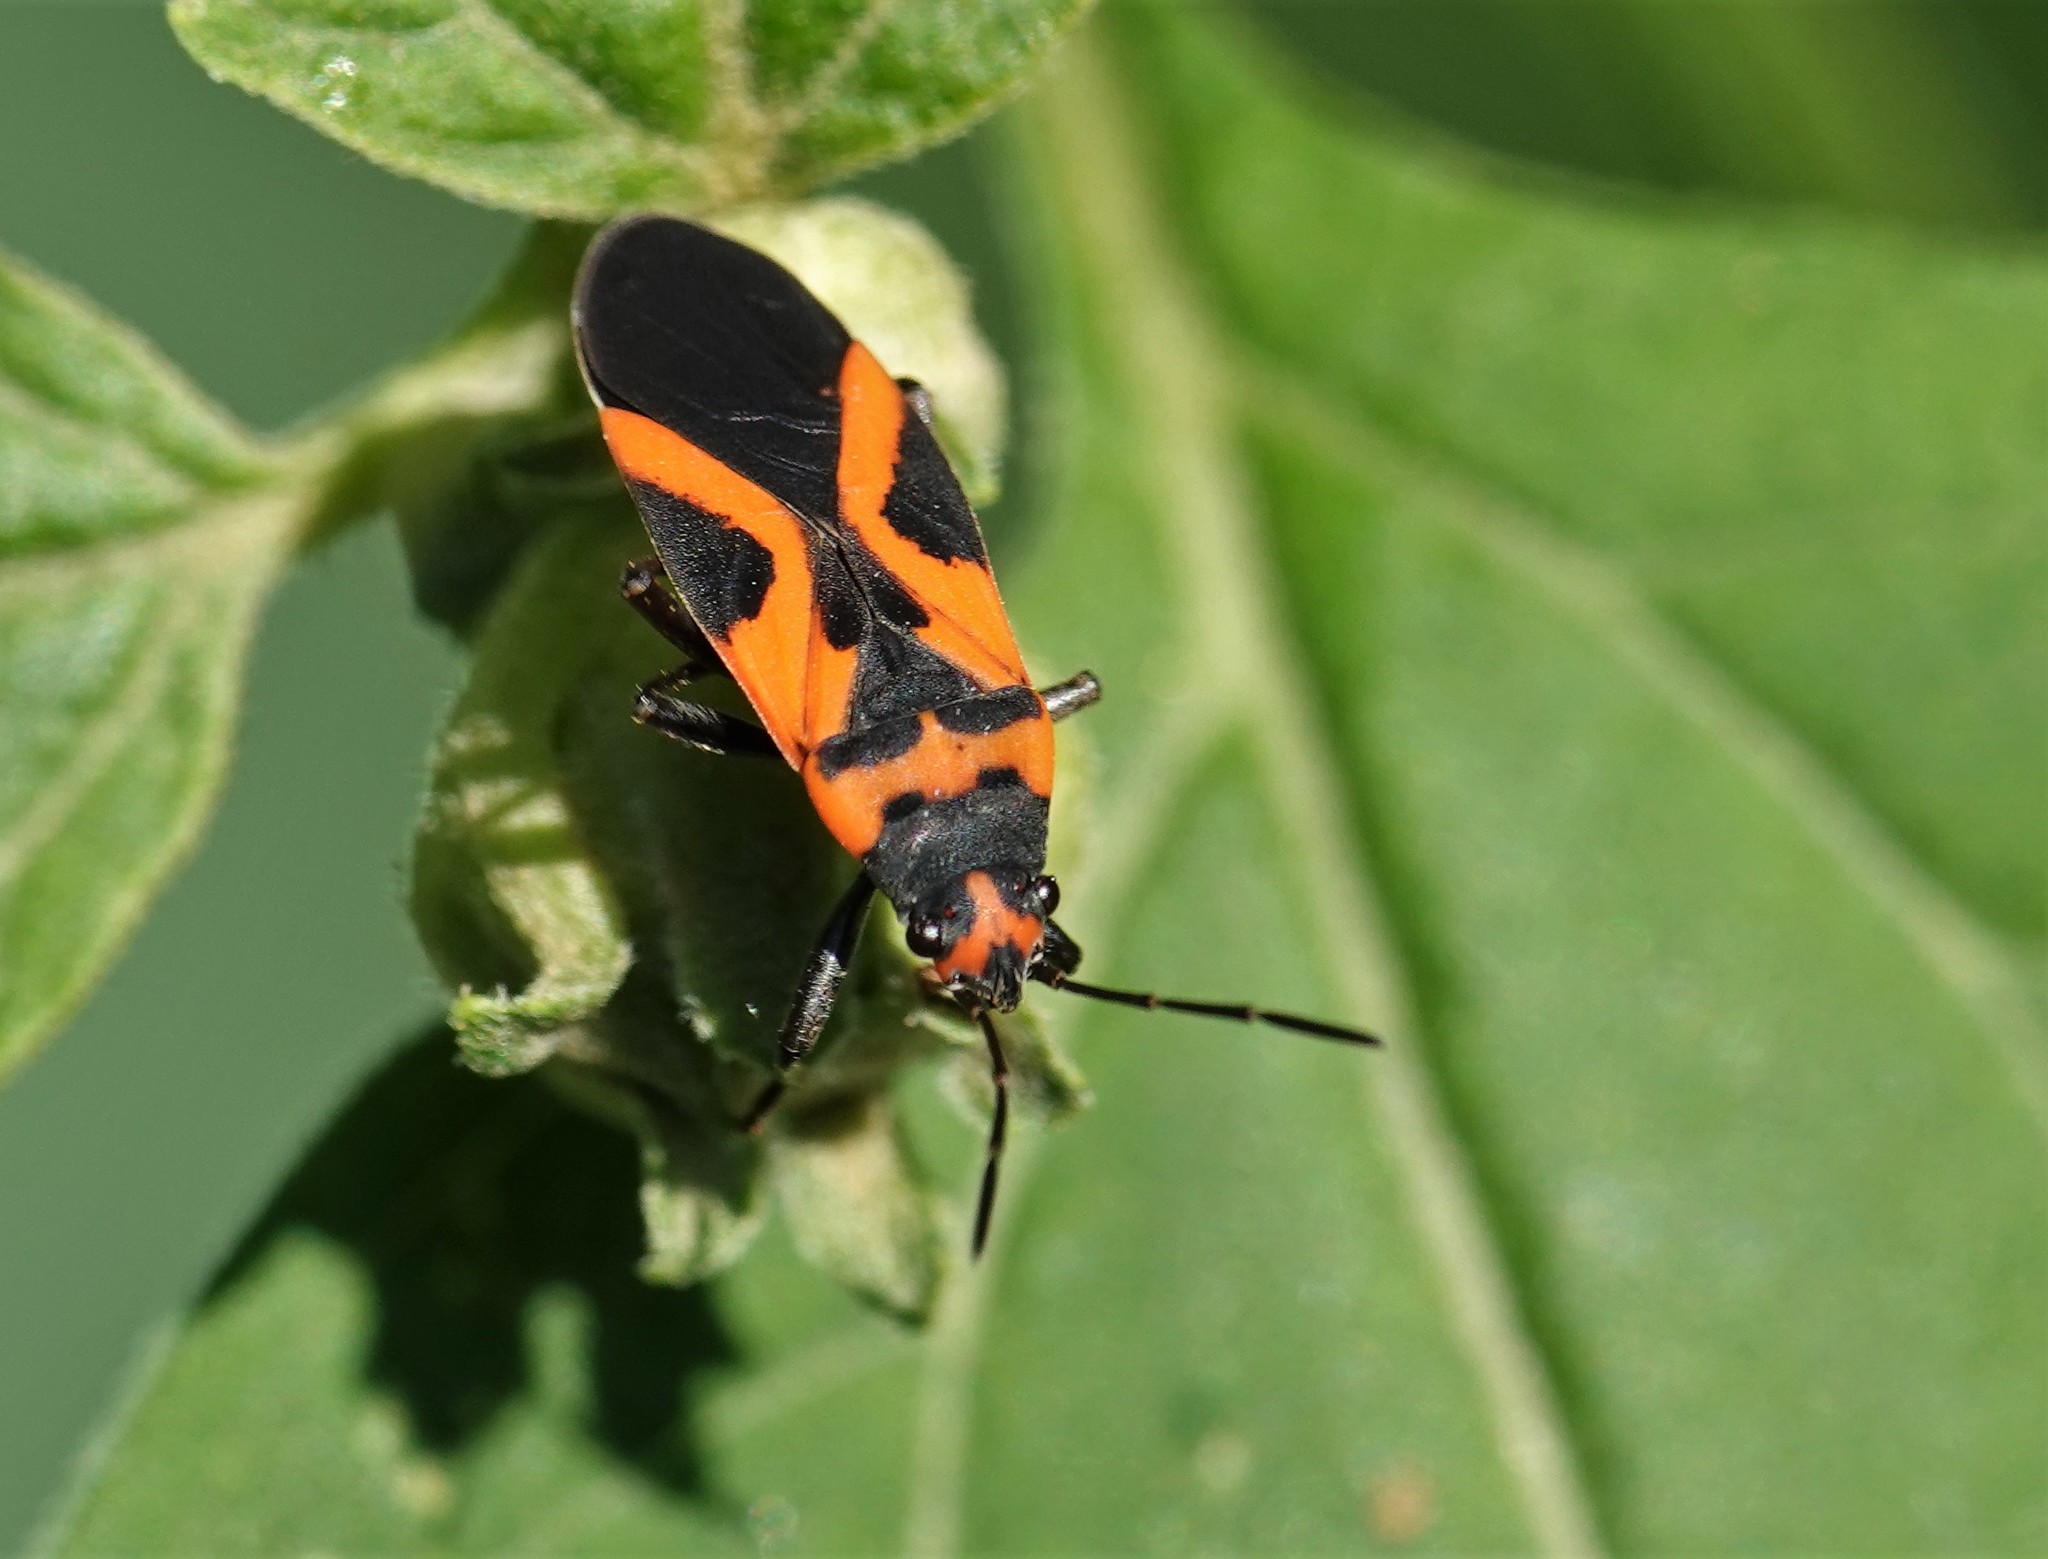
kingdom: Animalia
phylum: Arthropoda
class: Insecta
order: Hemiptera
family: Lygaeidae
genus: Lygaeus
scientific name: Lygaeus turcicus
